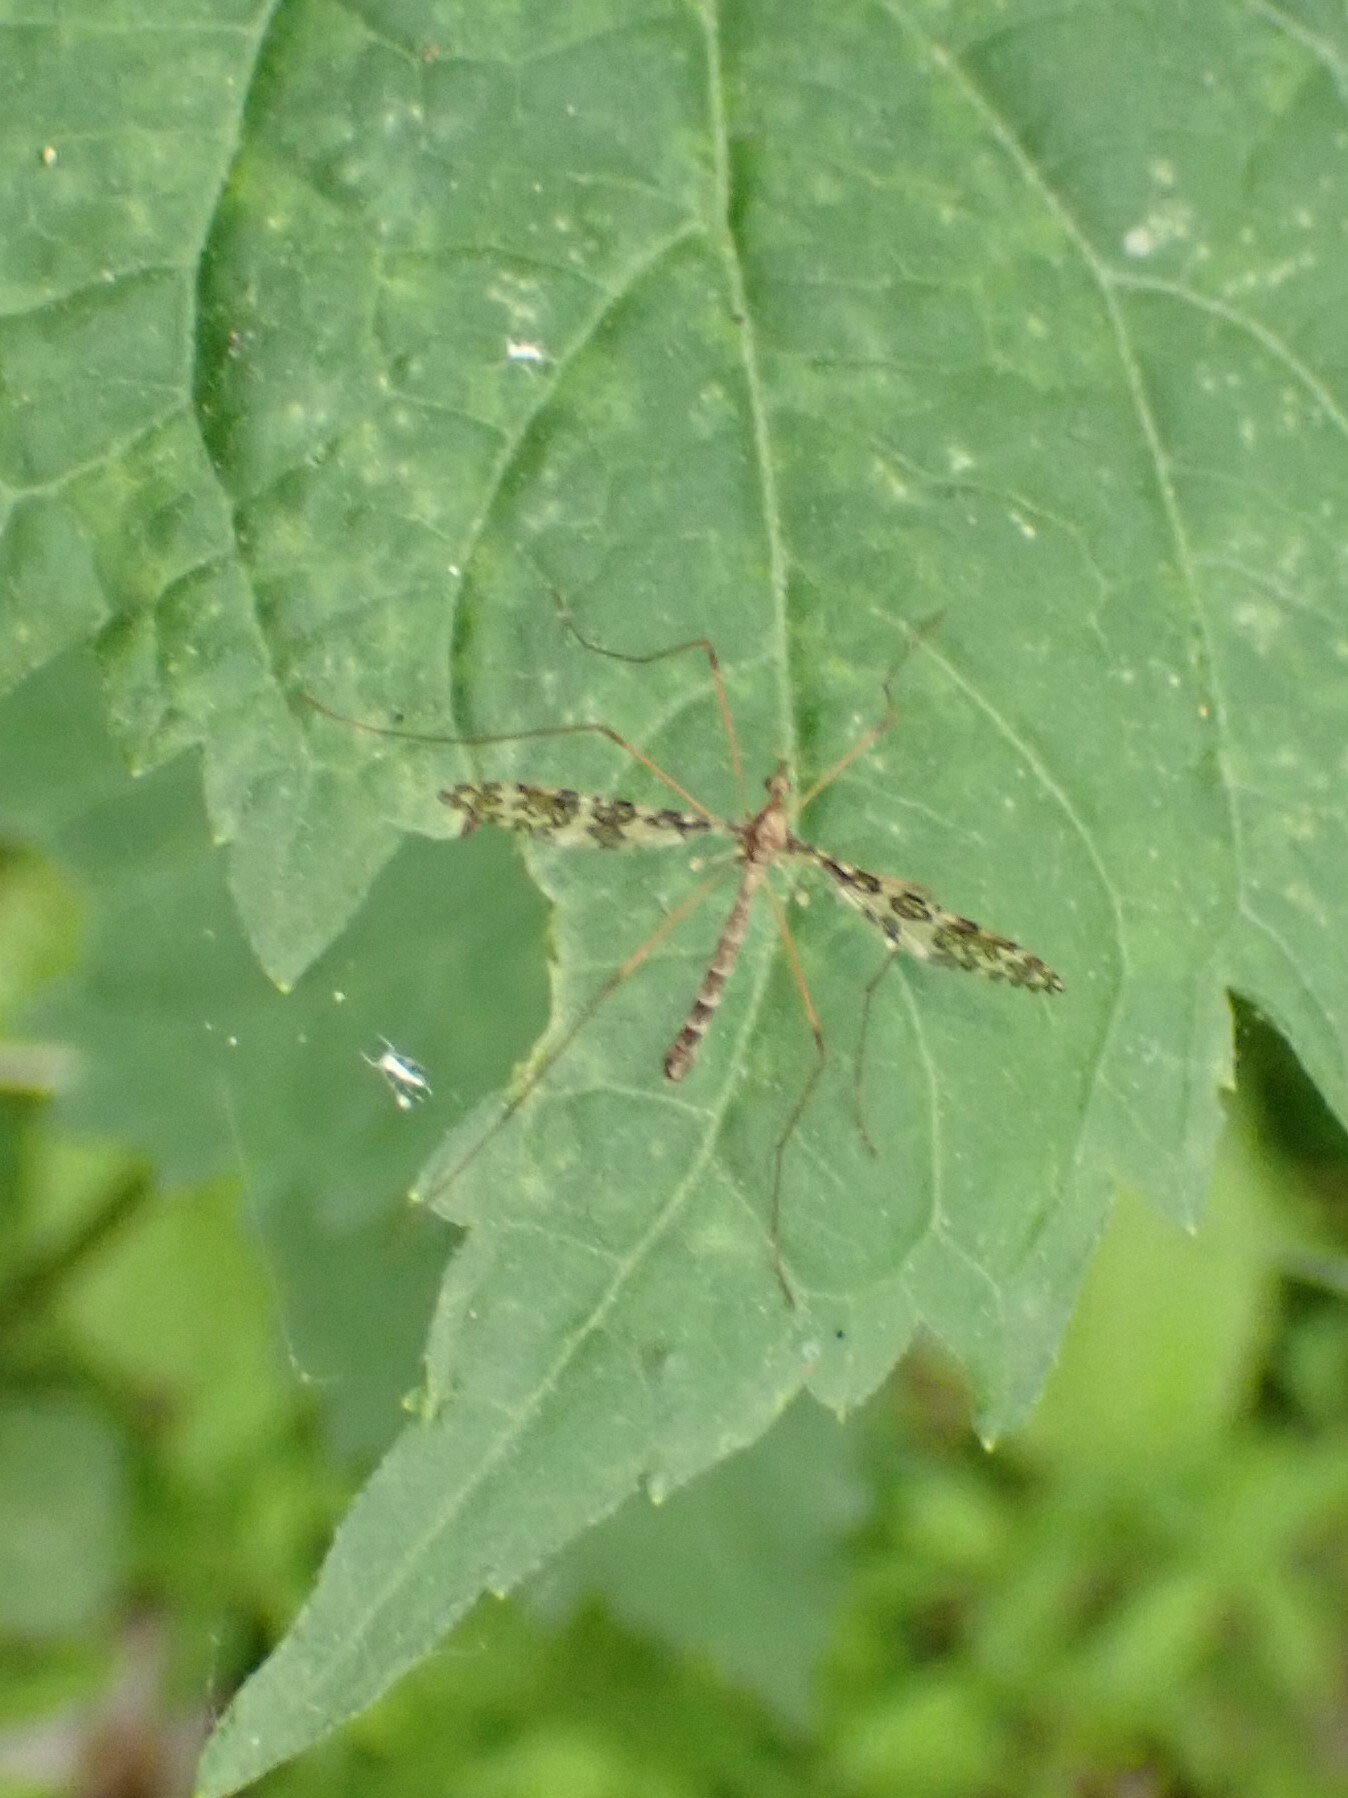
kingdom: Animalia
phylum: Arthropoda
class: Insecta
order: Diptera
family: Limoniidae
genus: Epiphragma
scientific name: Epiphragma fasciapenne
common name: Band-winged crane fly
